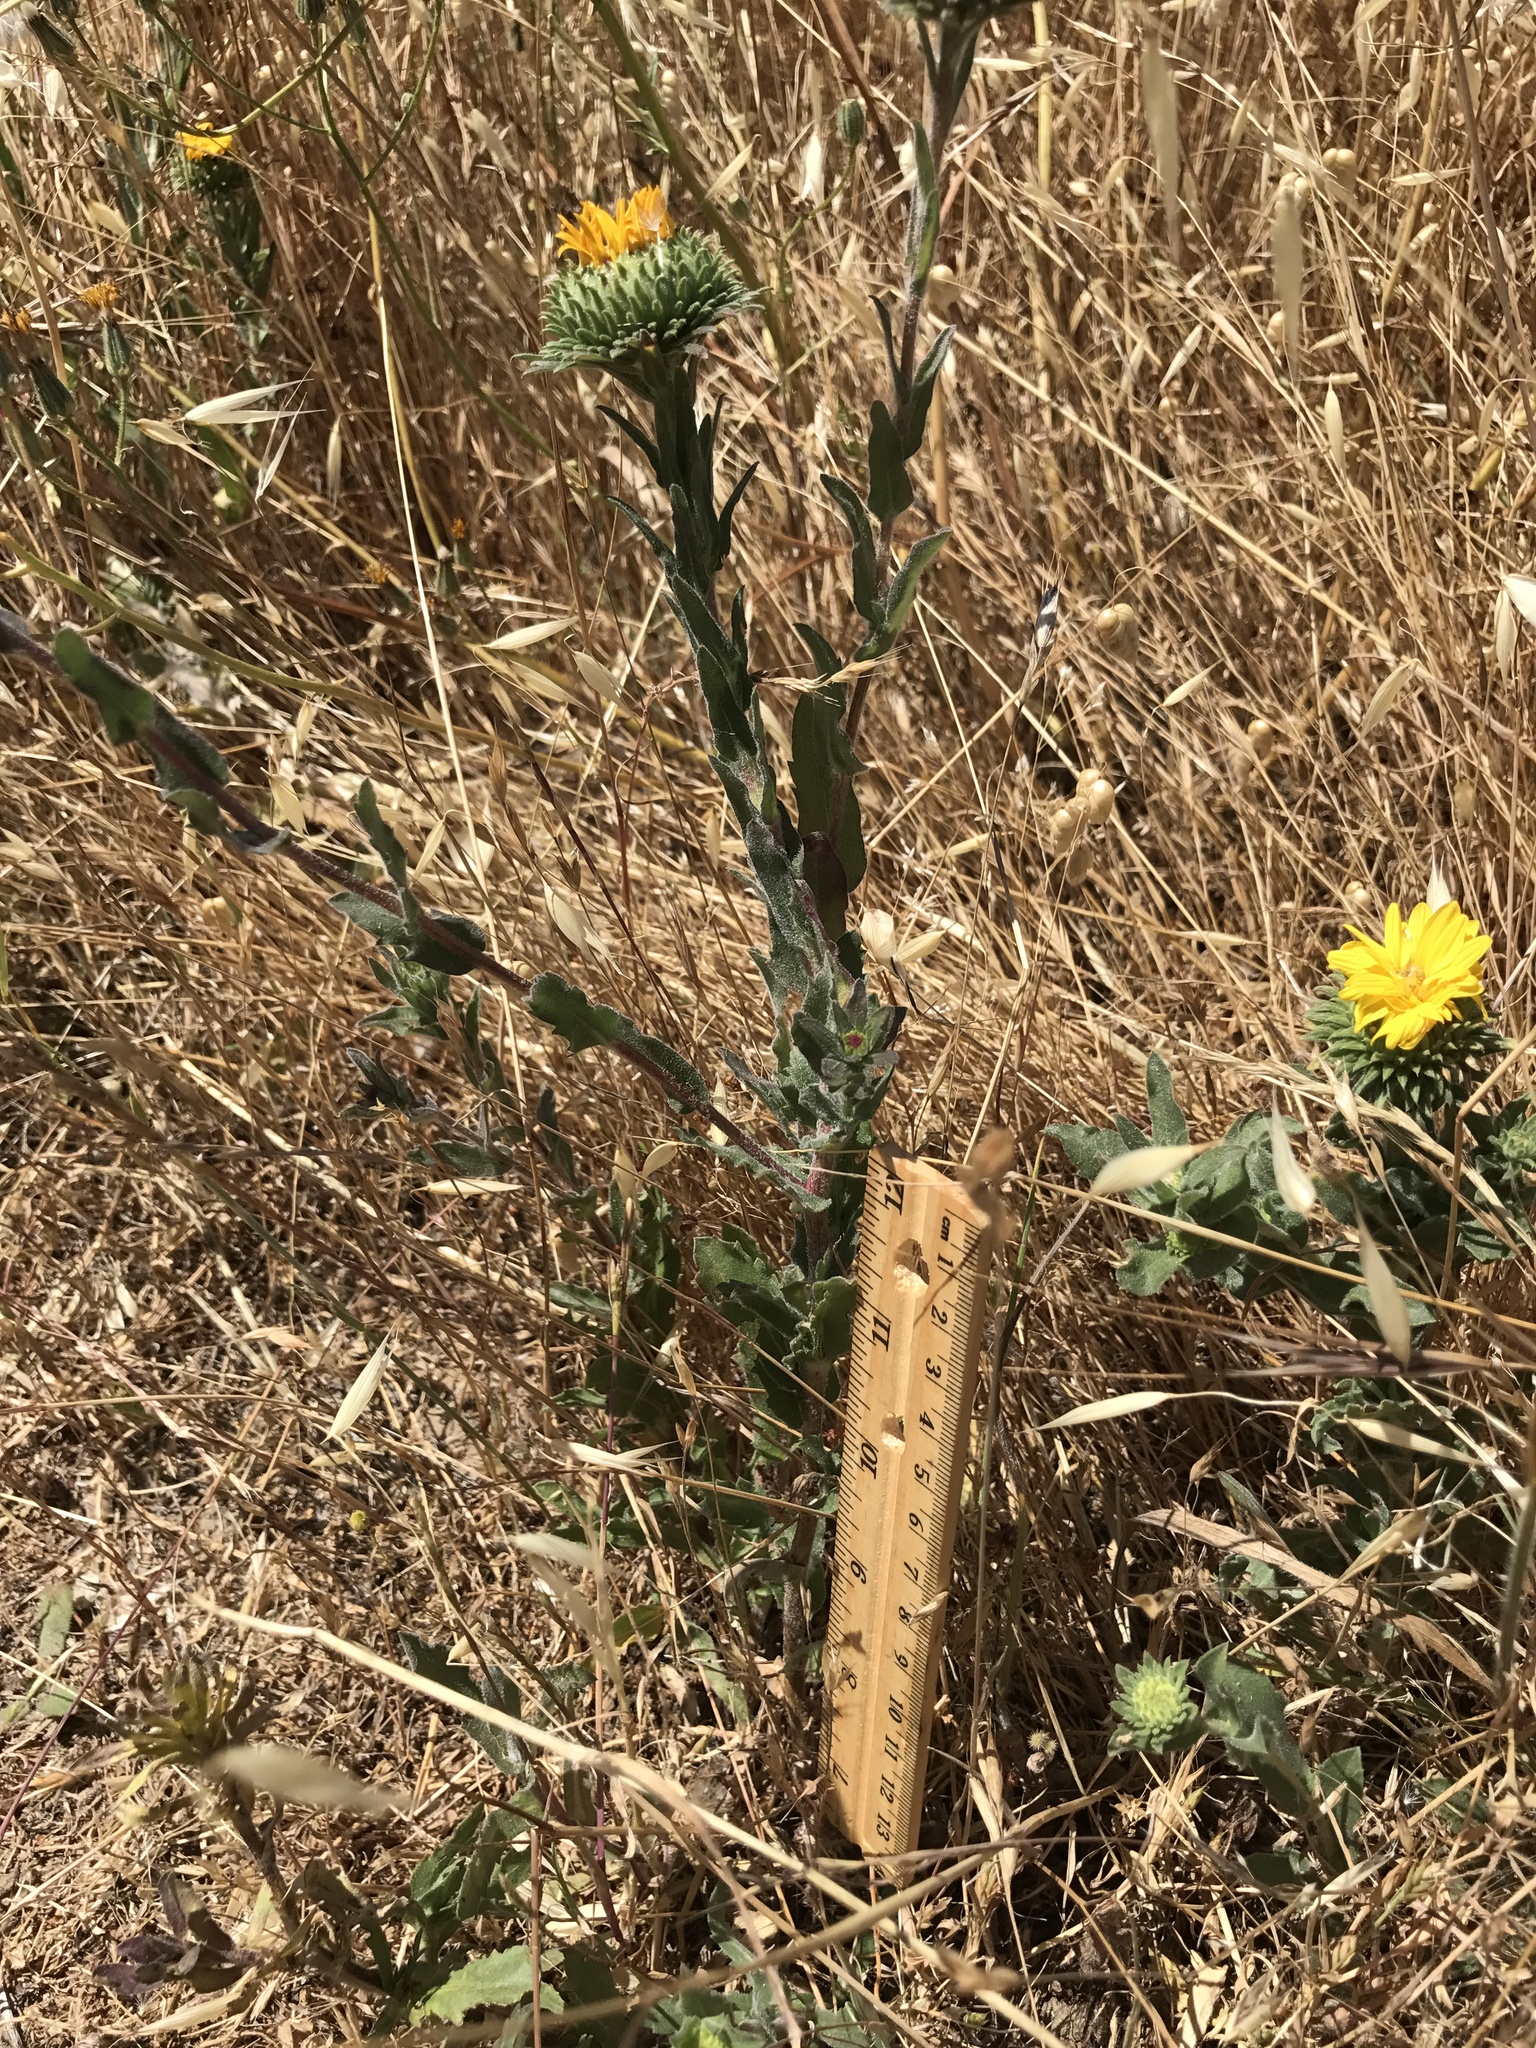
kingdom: Plantae
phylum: Tracheophyta
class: Magnoliopsida
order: Asterales
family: Asteraceae
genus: Grindelia
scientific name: Grindelia hirsutula
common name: Hairy gumweed
